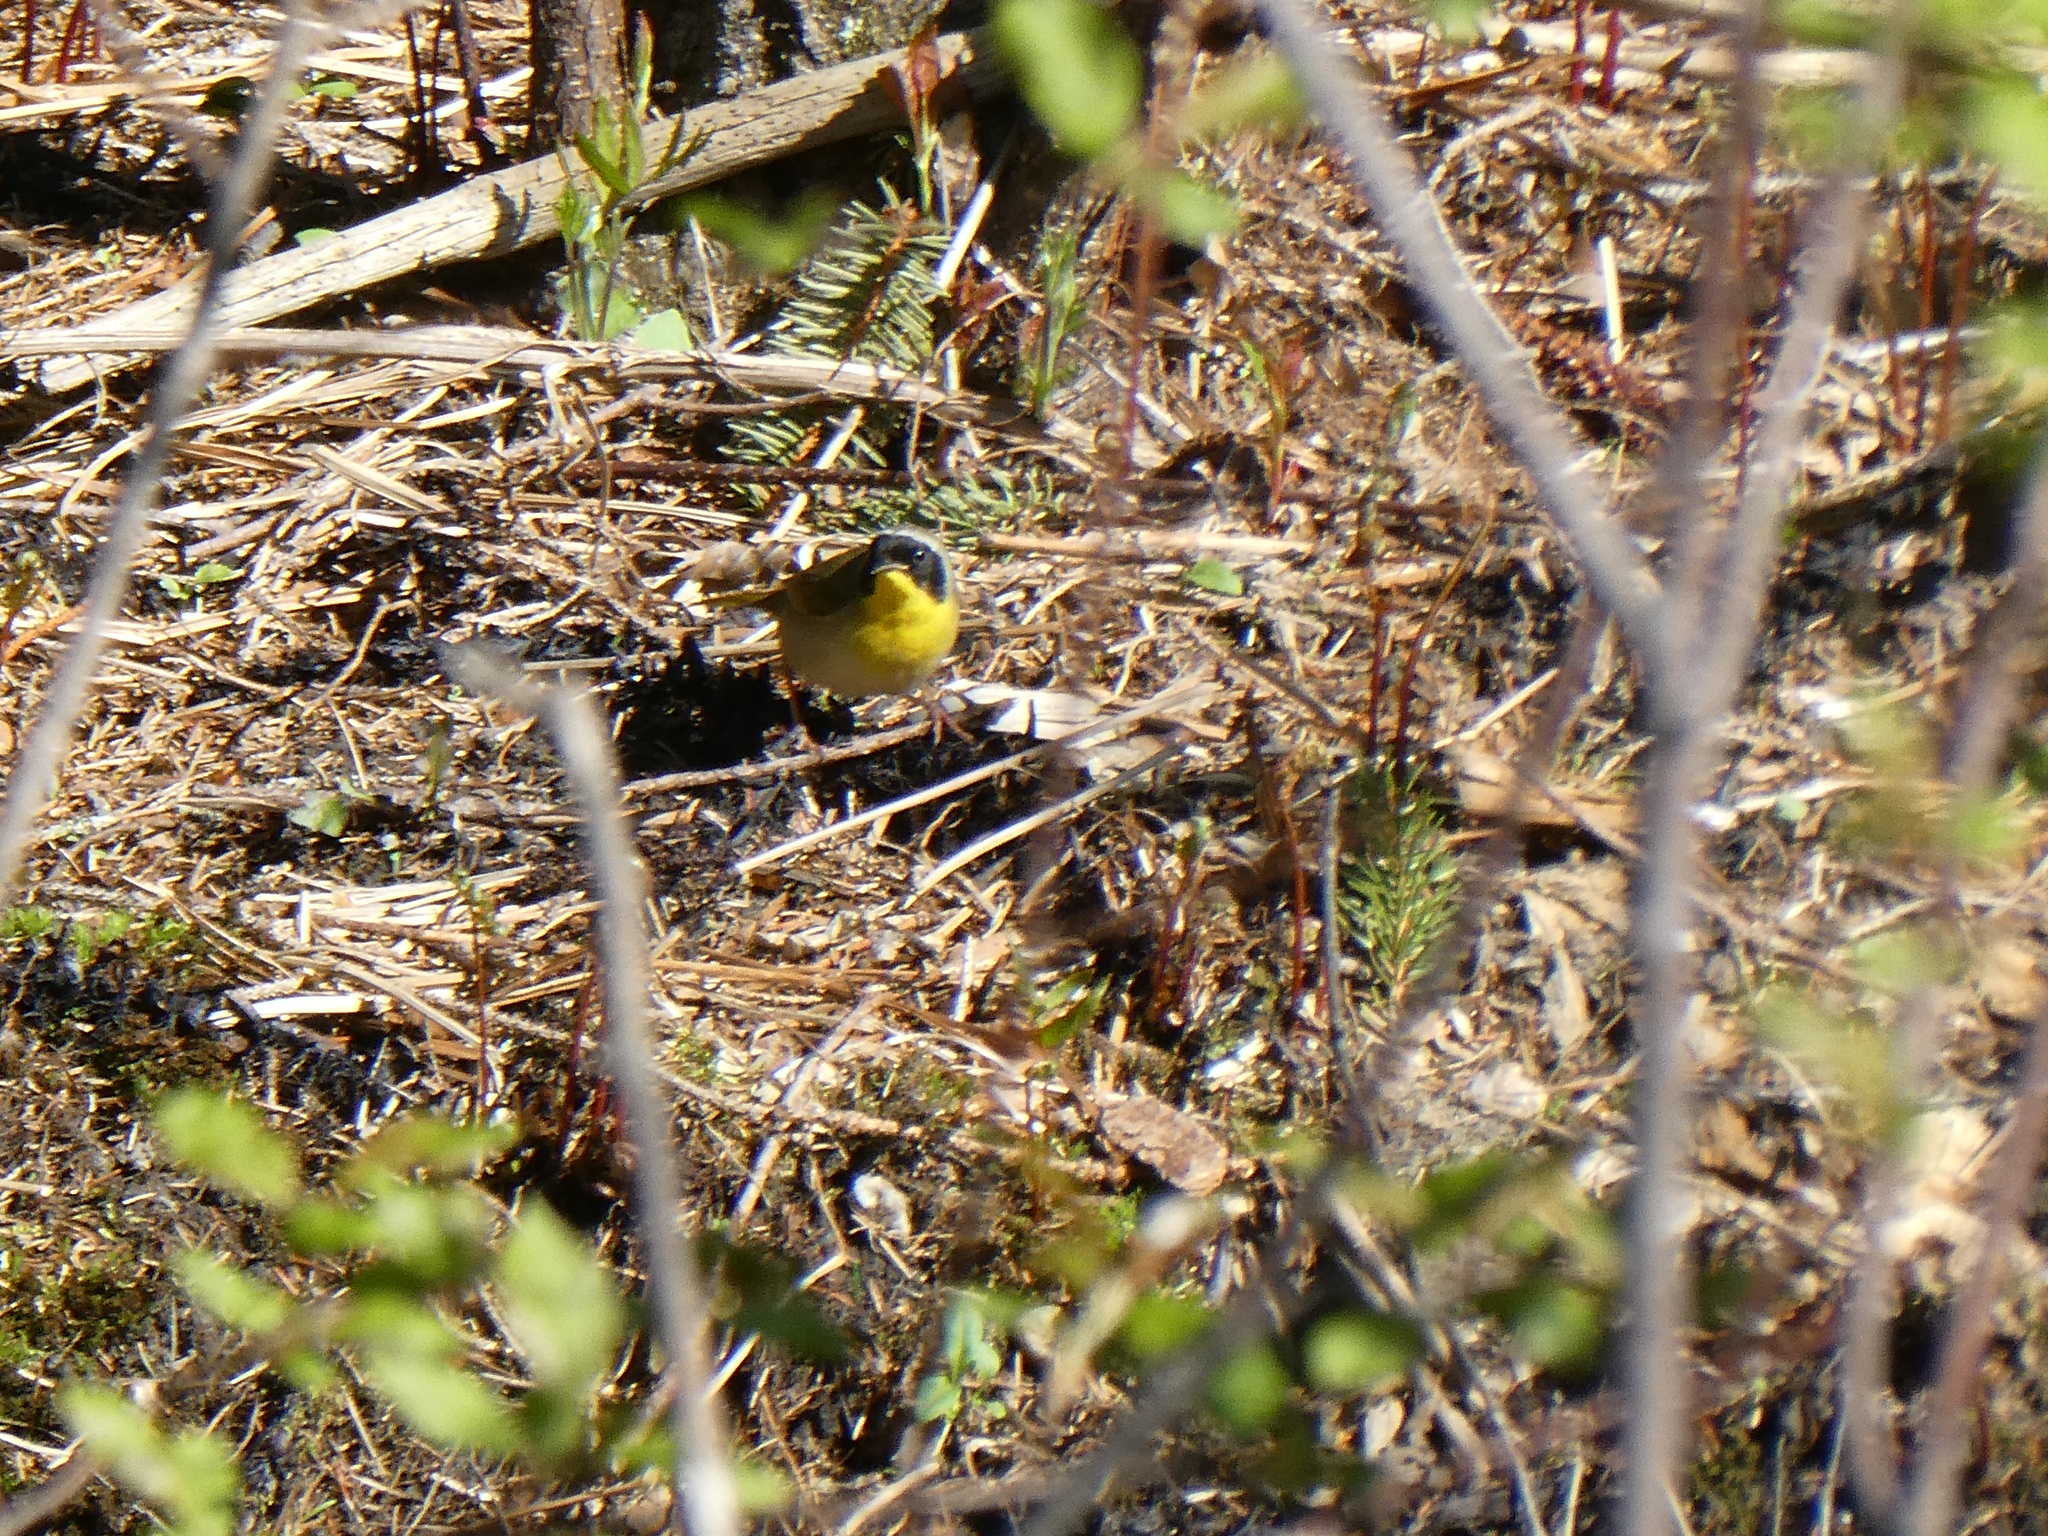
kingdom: Animalia
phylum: Chordata
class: Aves
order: Passeriformes
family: Parulidae
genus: Geothlypis
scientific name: Geothlypis trichas
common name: Common yellowthroat
